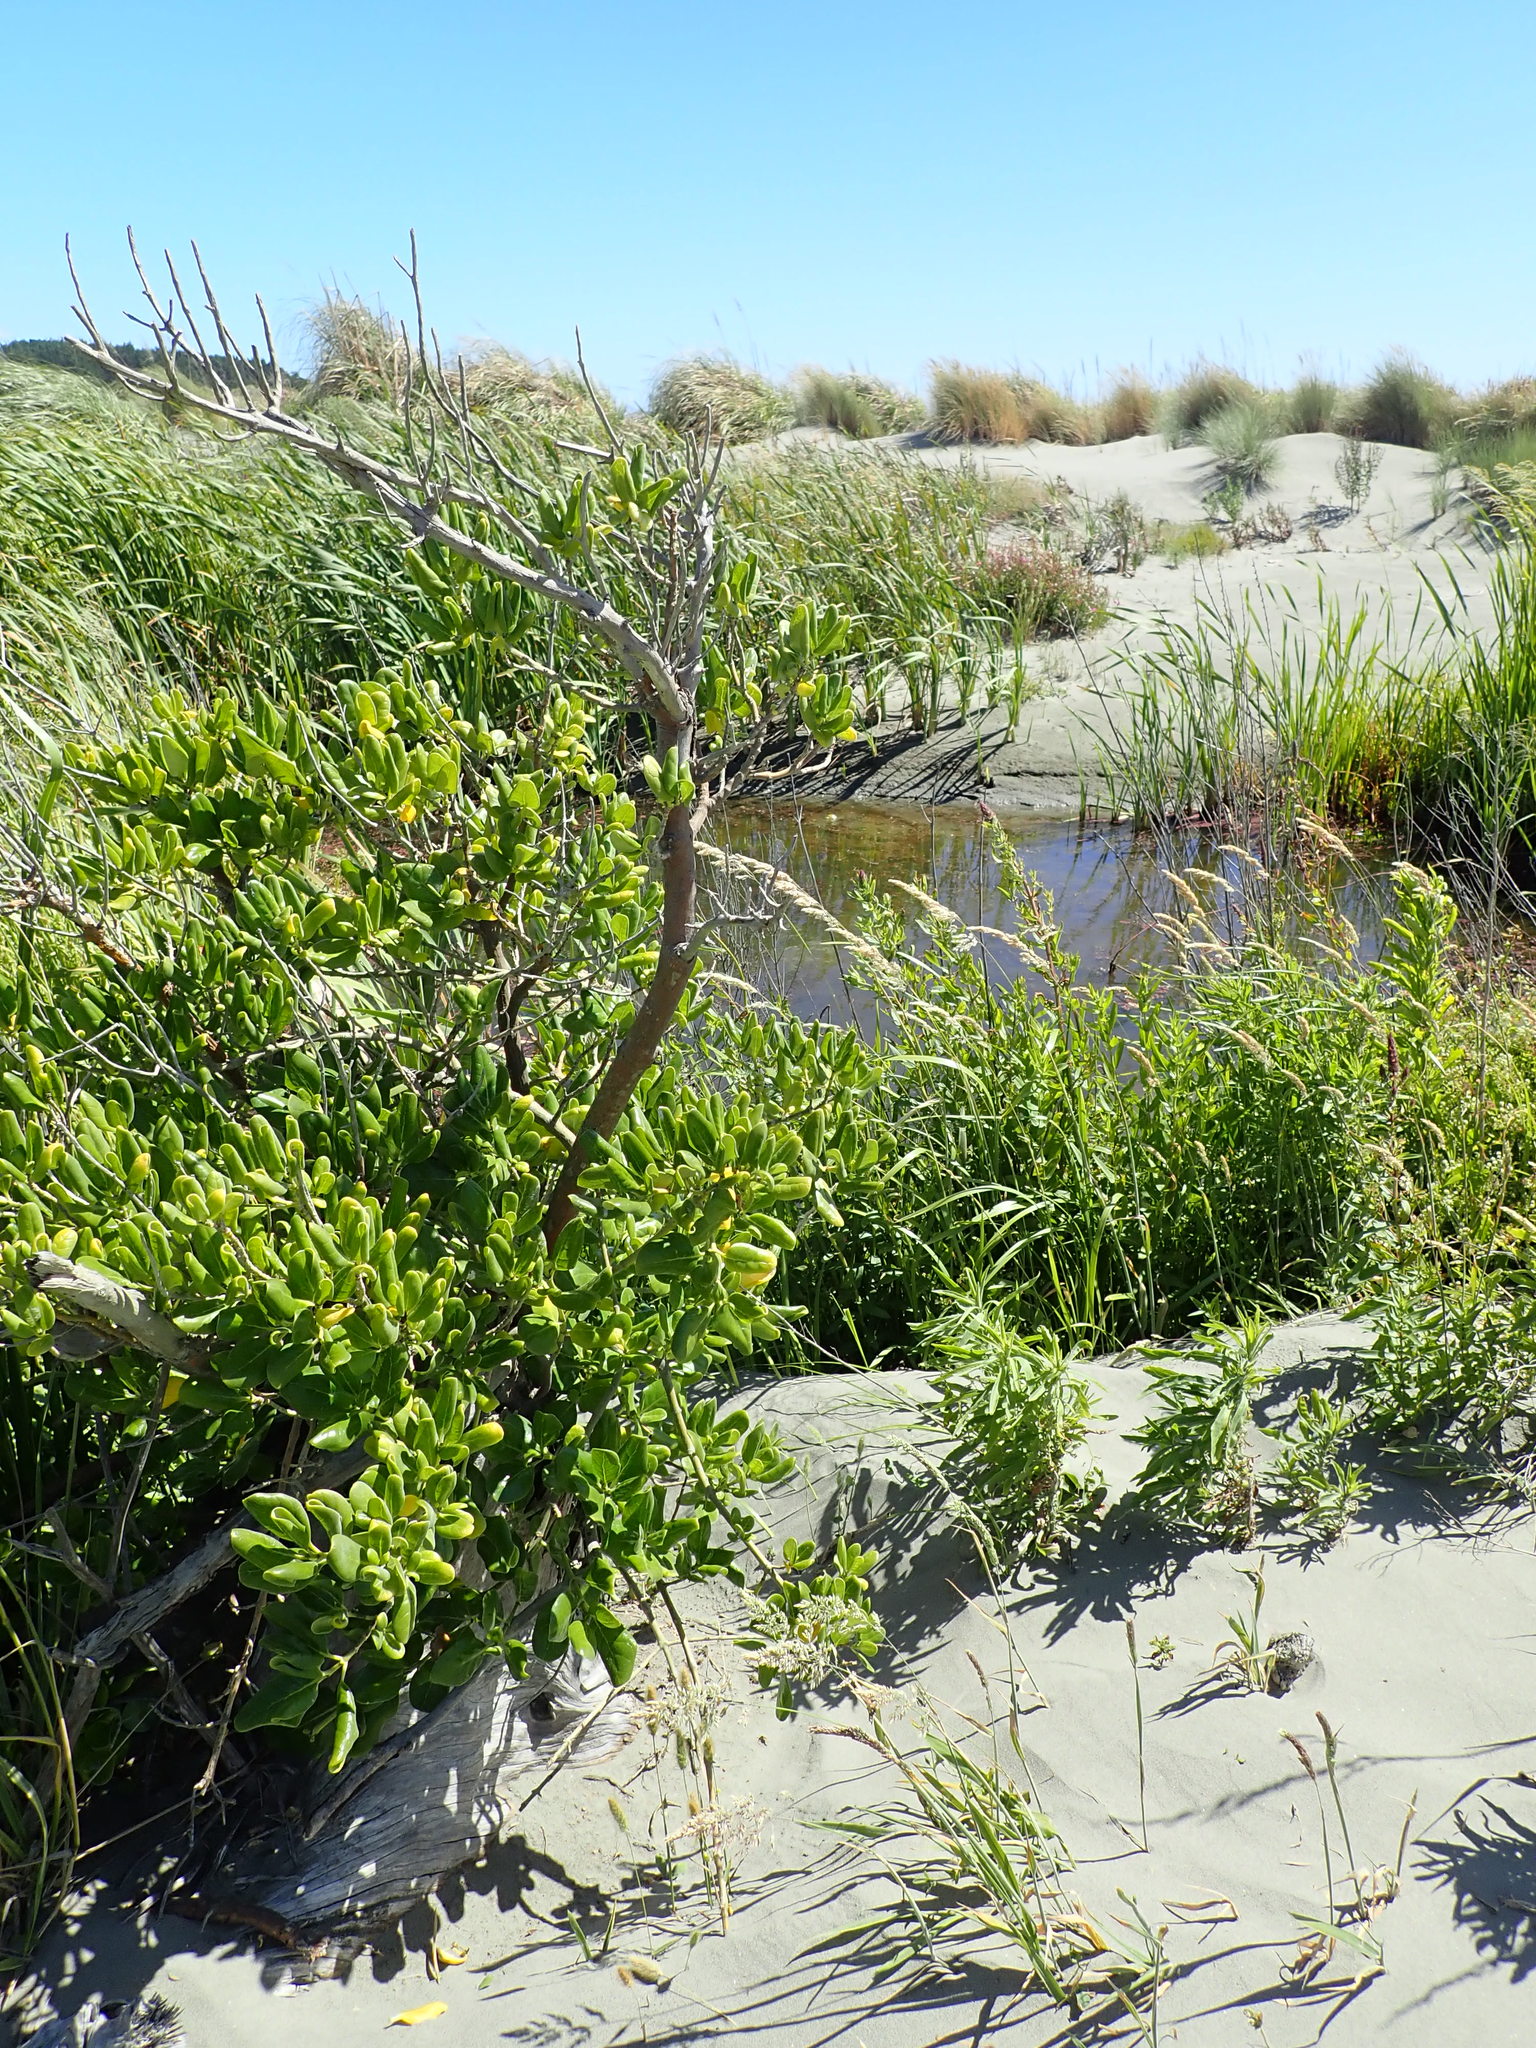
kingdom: Plantae
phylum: Tracheophyta
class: Magnoliopsida
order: Gentianales
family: Rubiaceae
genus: Coprosma
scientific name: Coprosma repens
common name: Tree bedstraw
